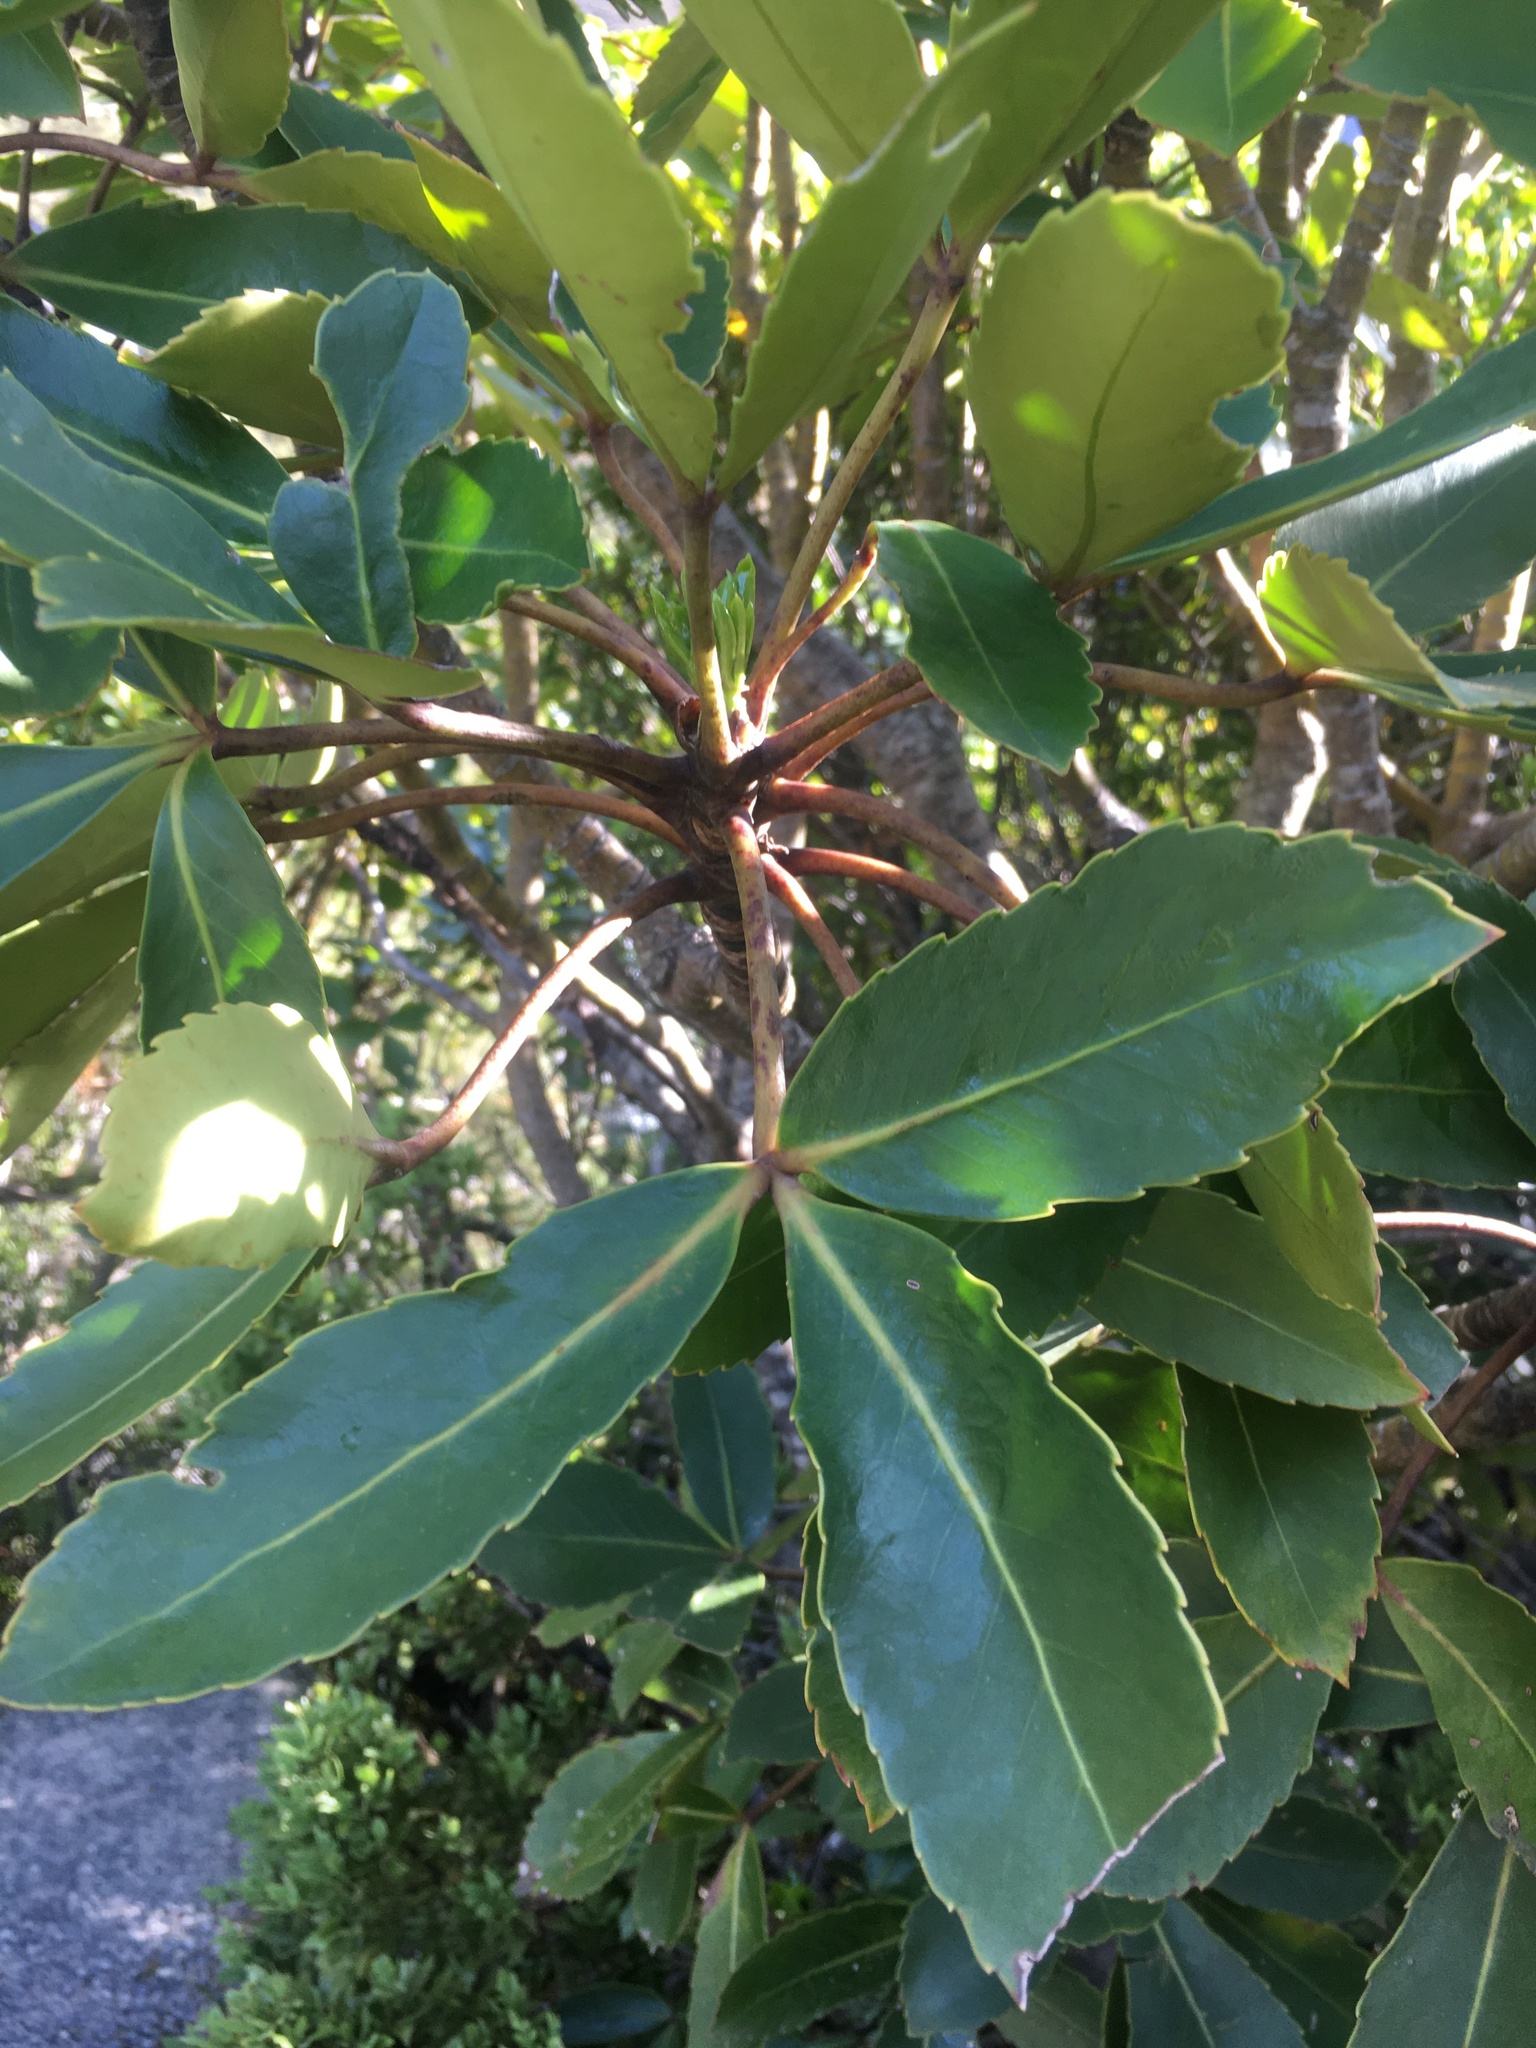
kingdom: Plantae
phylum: Tracheophyta
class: Magnoliopsida
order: Apiales
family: Araliaceae
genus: Neopanax
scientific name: Neopanax colensoi
